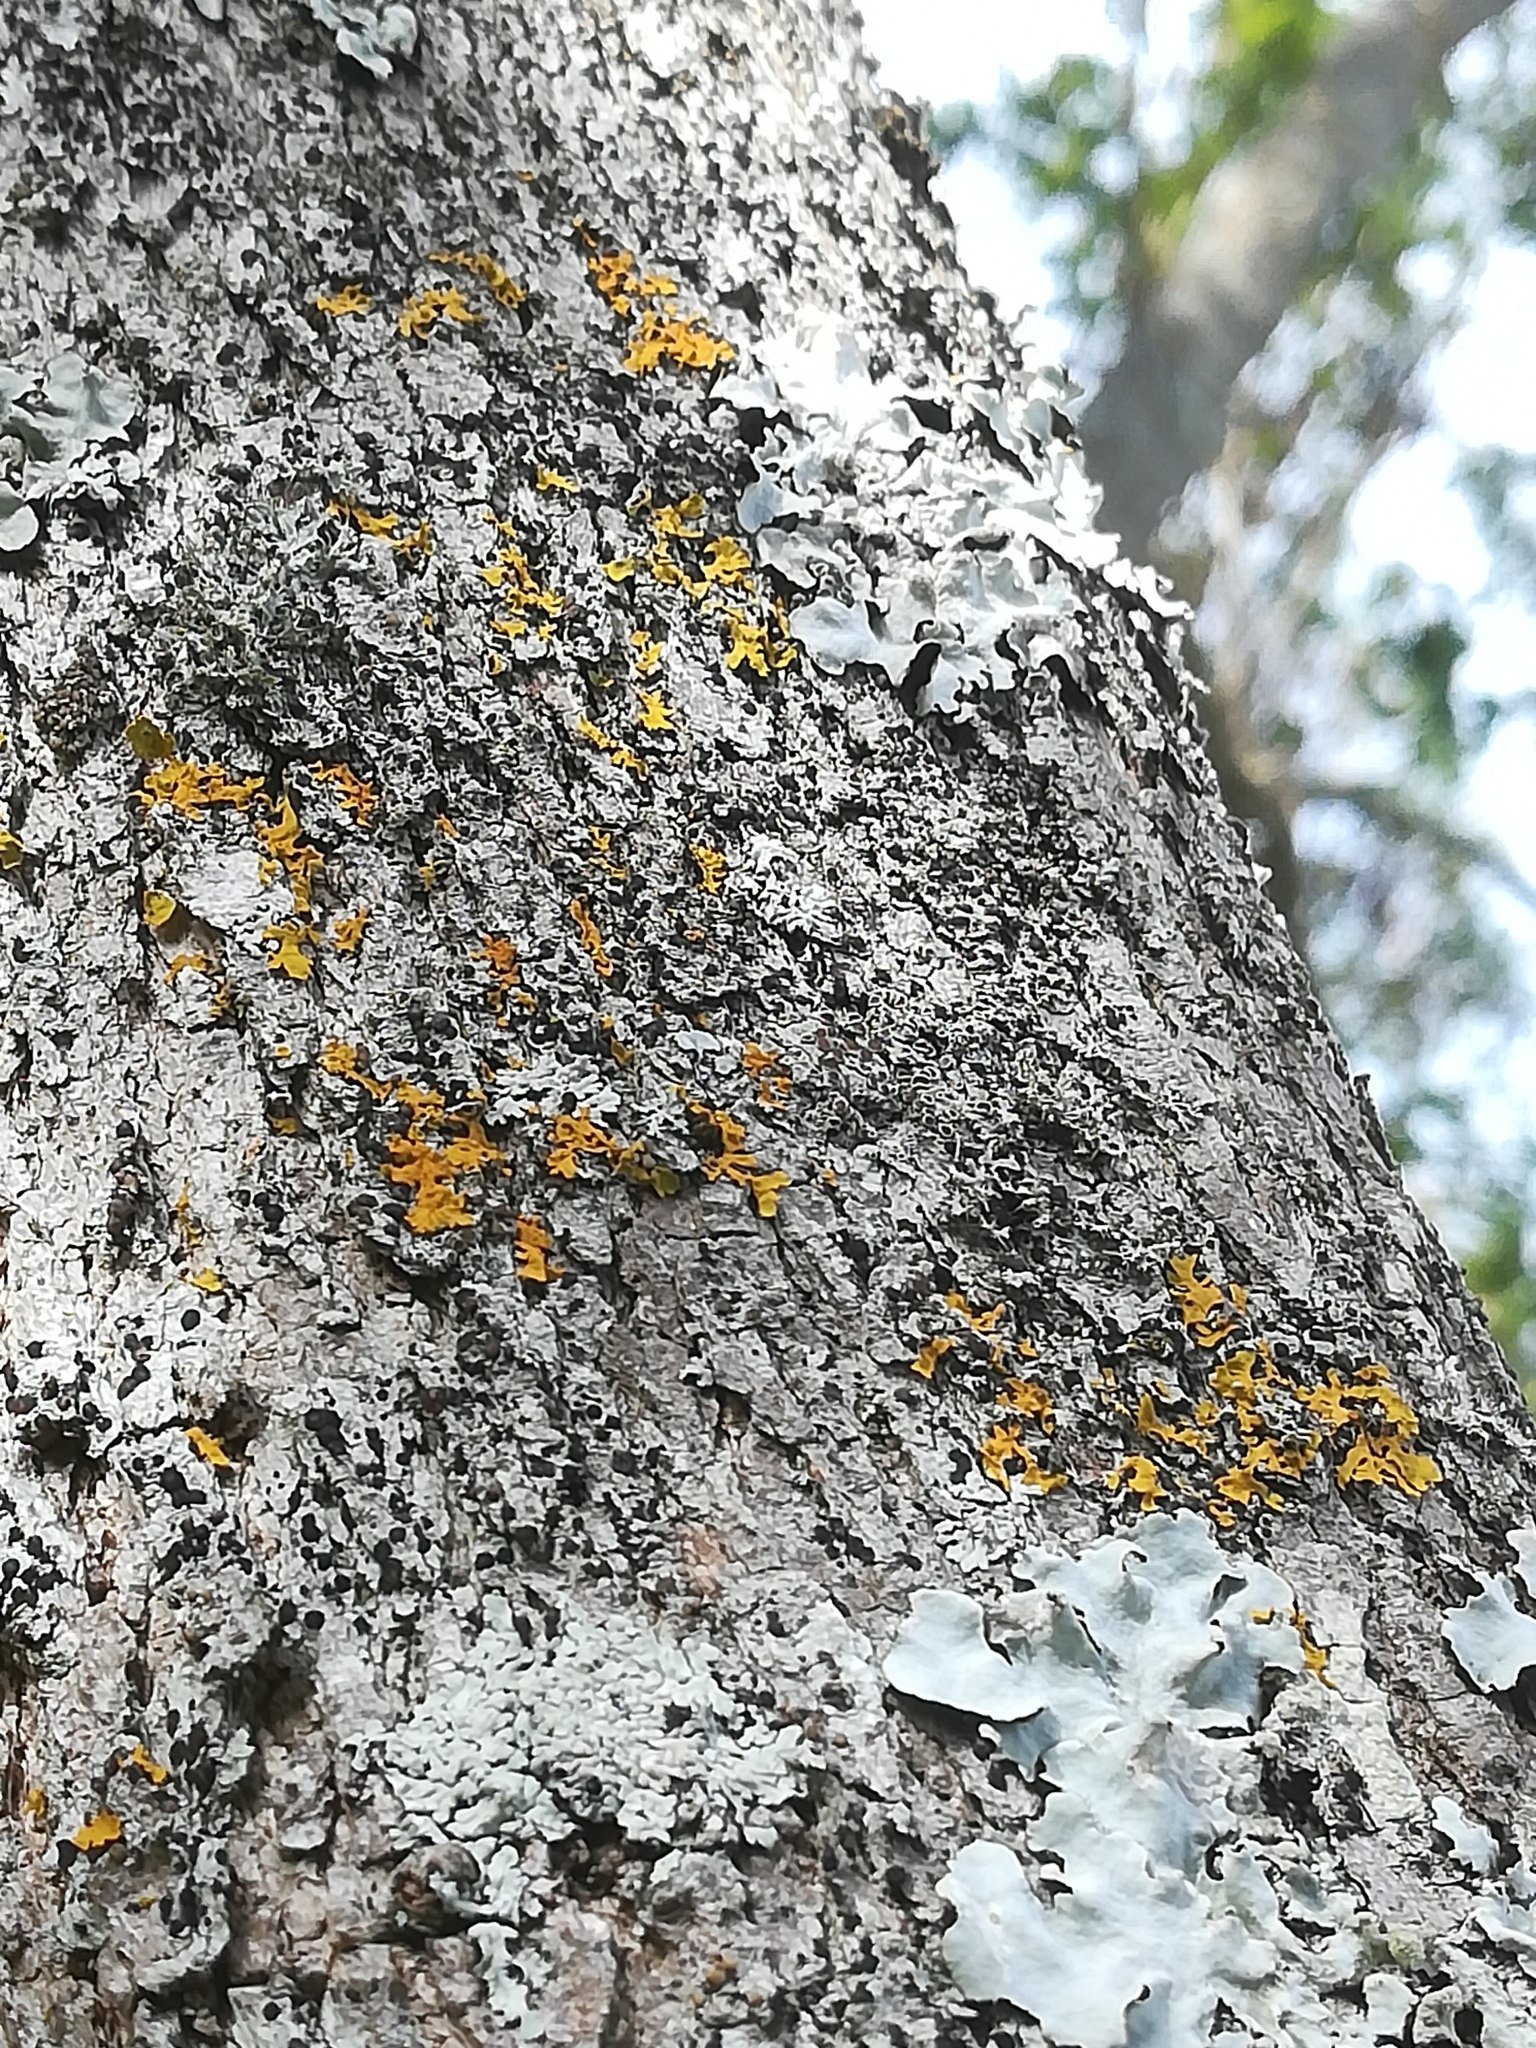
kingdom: Fungi
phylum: Ascomycota
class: Lecanoromycetes
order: Teloschistales
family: Teloschistaceae
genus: Xanthoria
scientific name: Xanthoria parietina
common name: Common orange lichen
